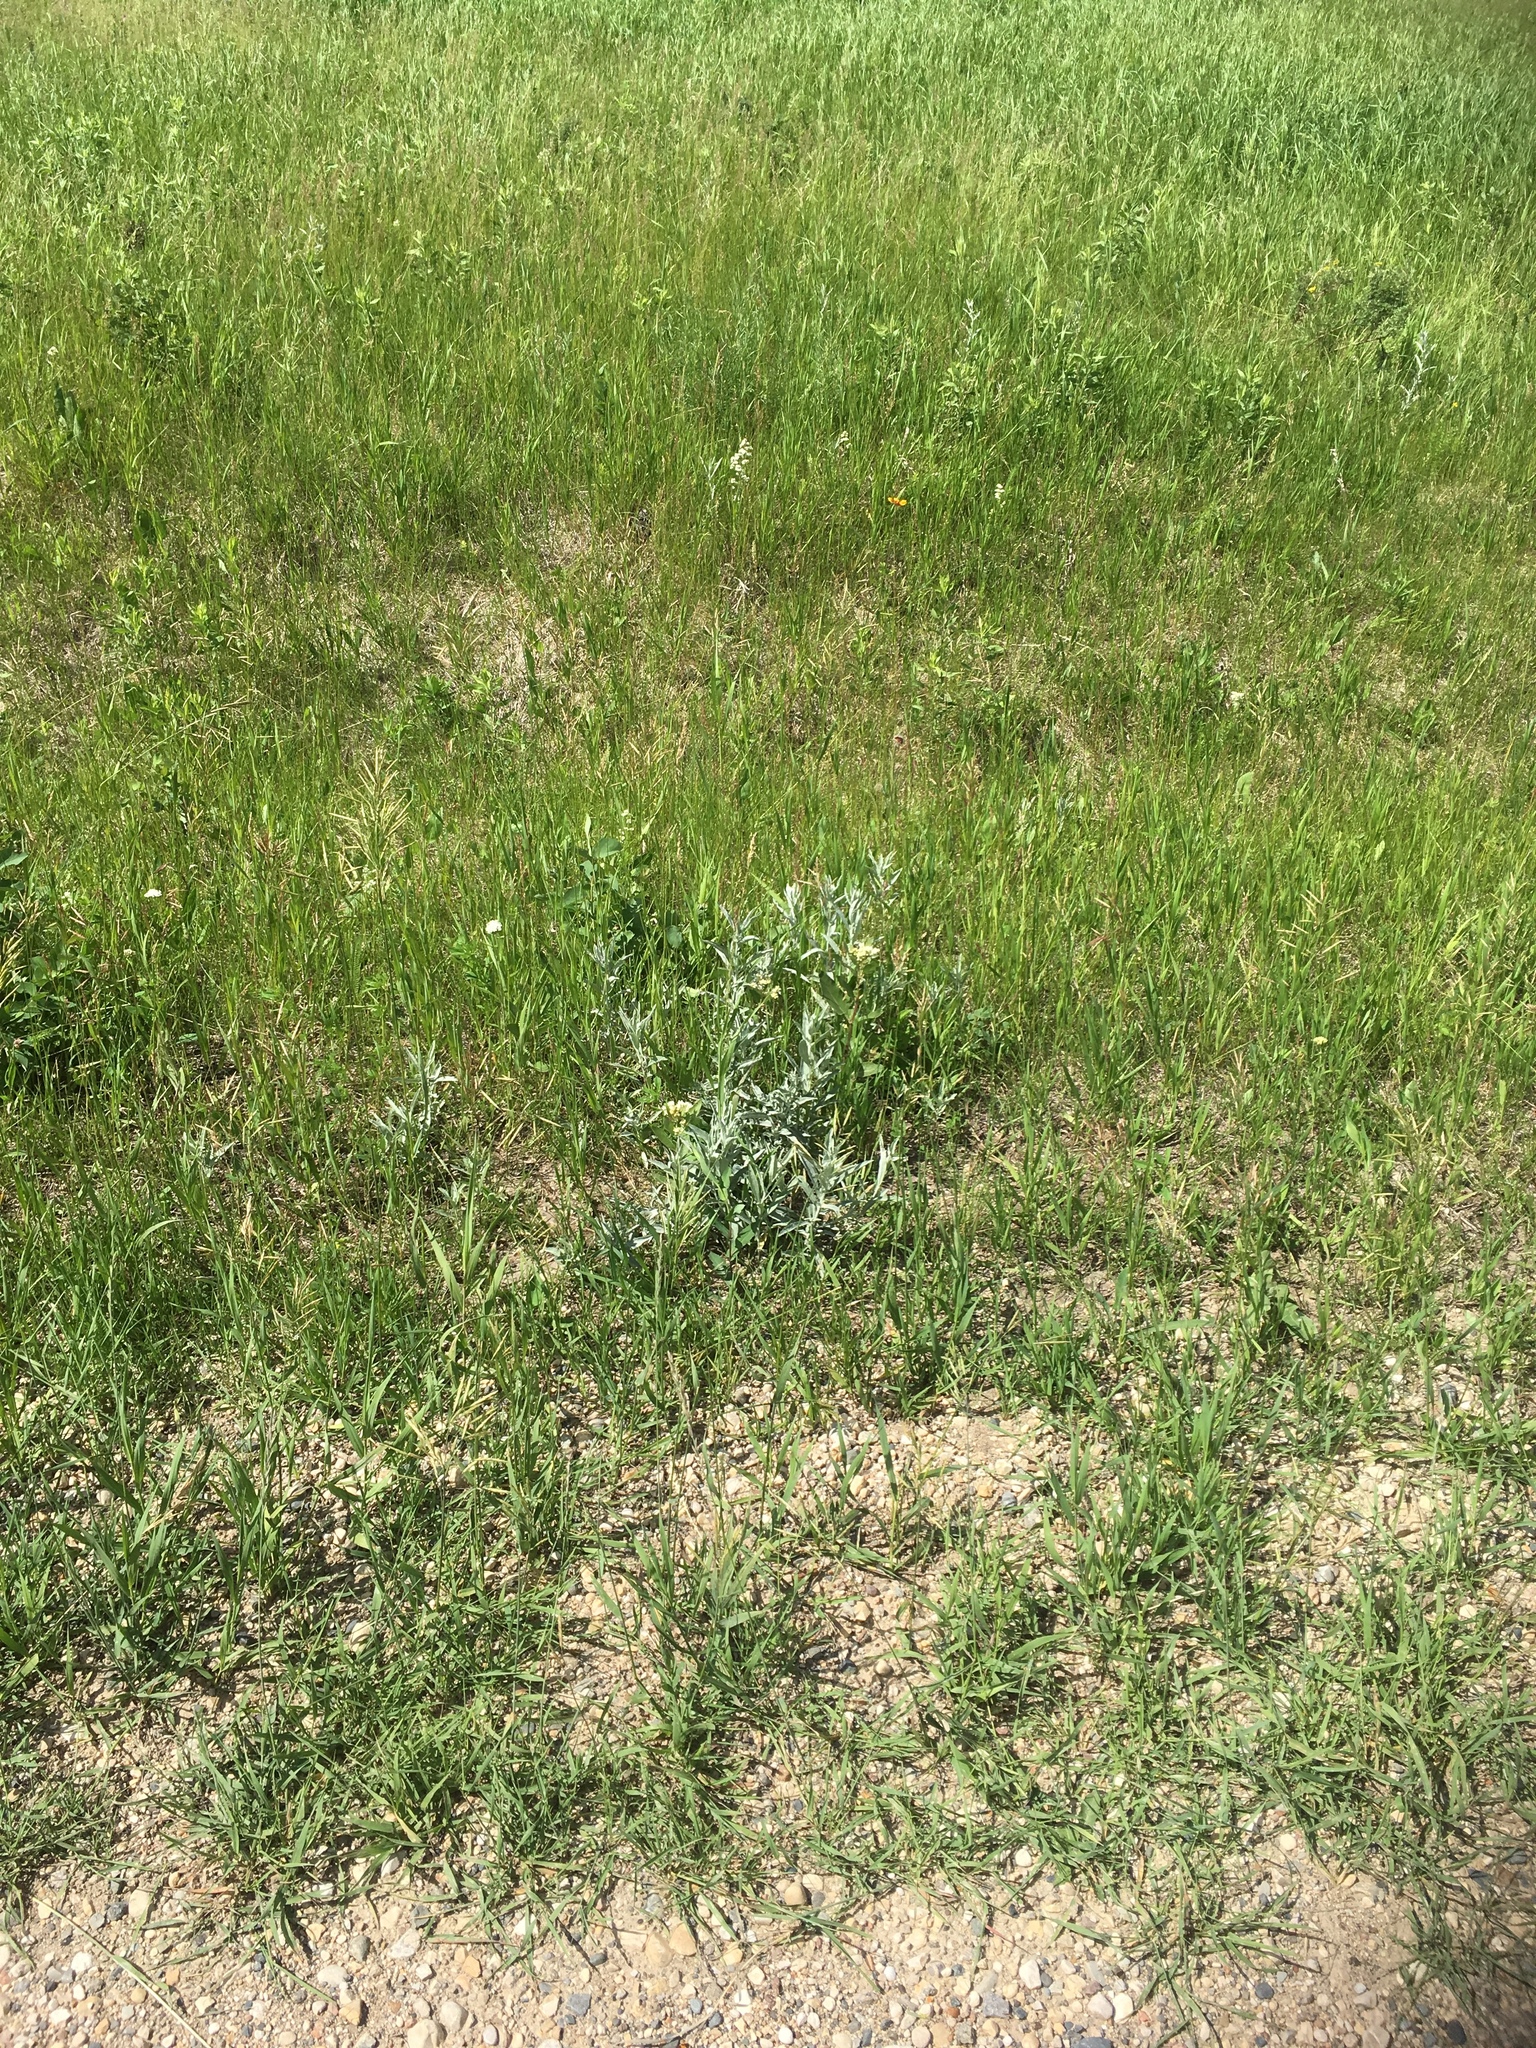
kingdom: Plantae
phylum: Tracheophyta
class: Magnoliopsida
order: Gentianales
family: Apocynaceae
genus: Asclepias
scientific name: Asclepias ovalifolia
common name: Dwarf milkweed
